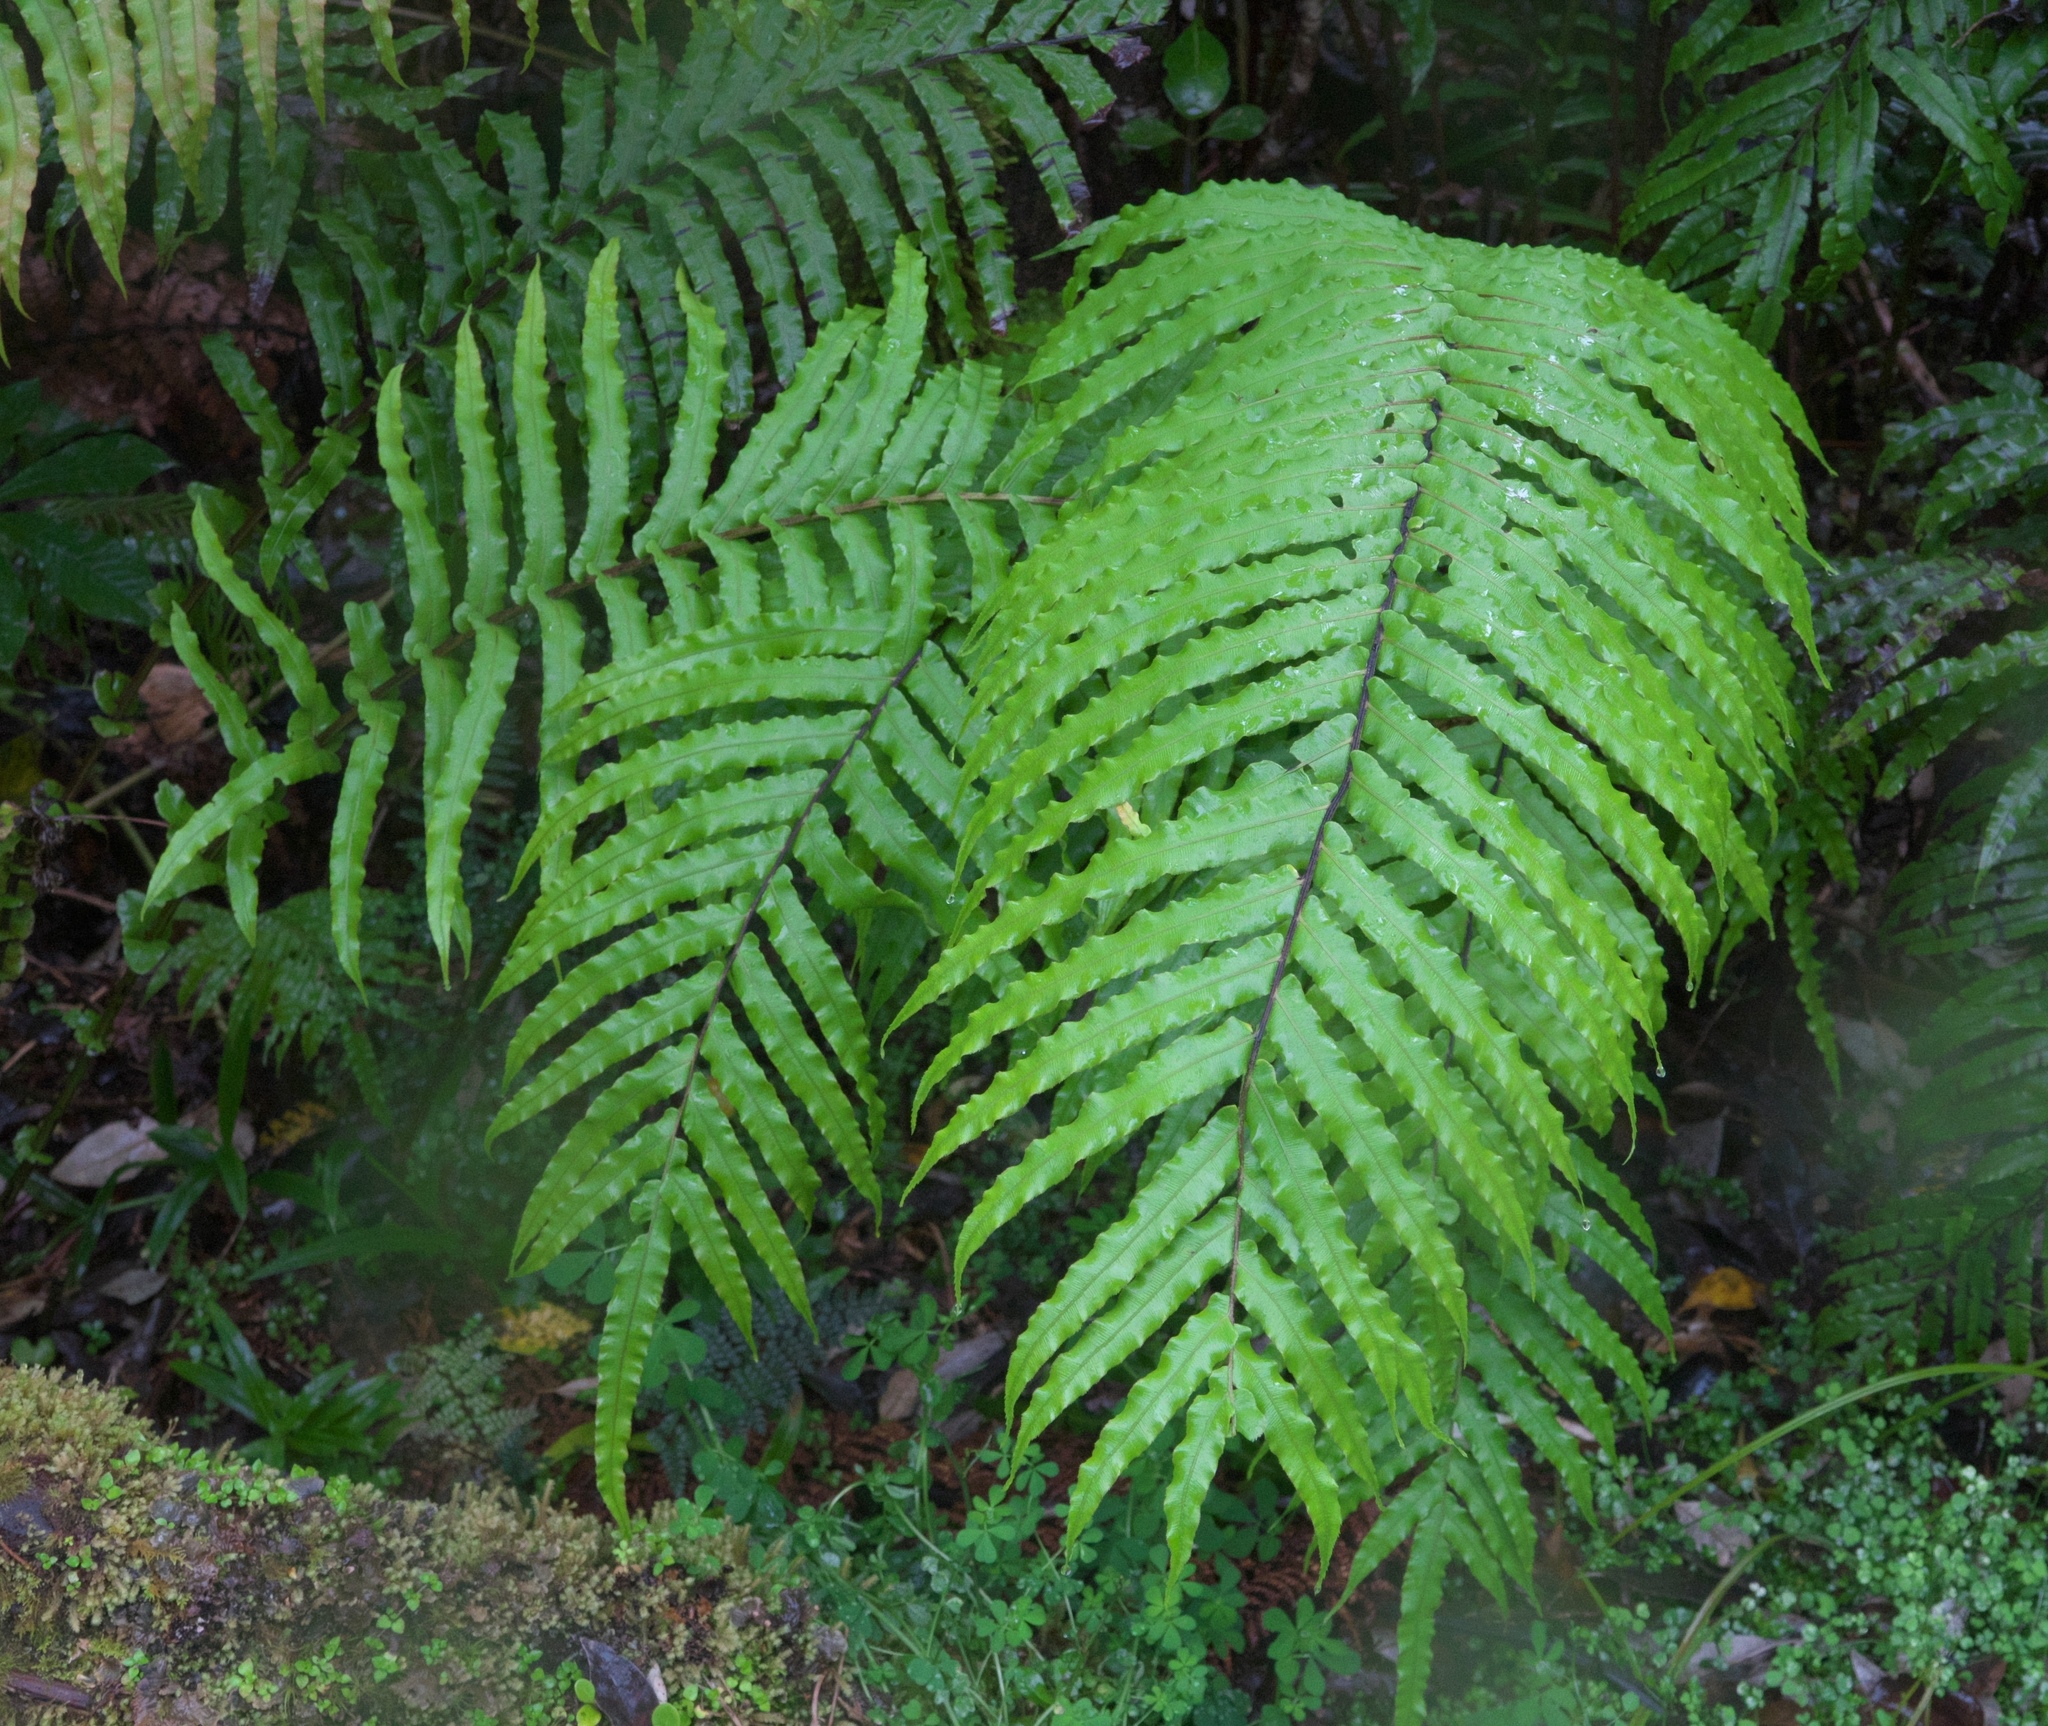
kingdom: Plantae
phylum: Tracheophyta
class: Polypodiopsida
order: Polypodiales
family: Blechnaceae
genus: Parablechnum
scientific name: Parablechnum novae-zelandiae
